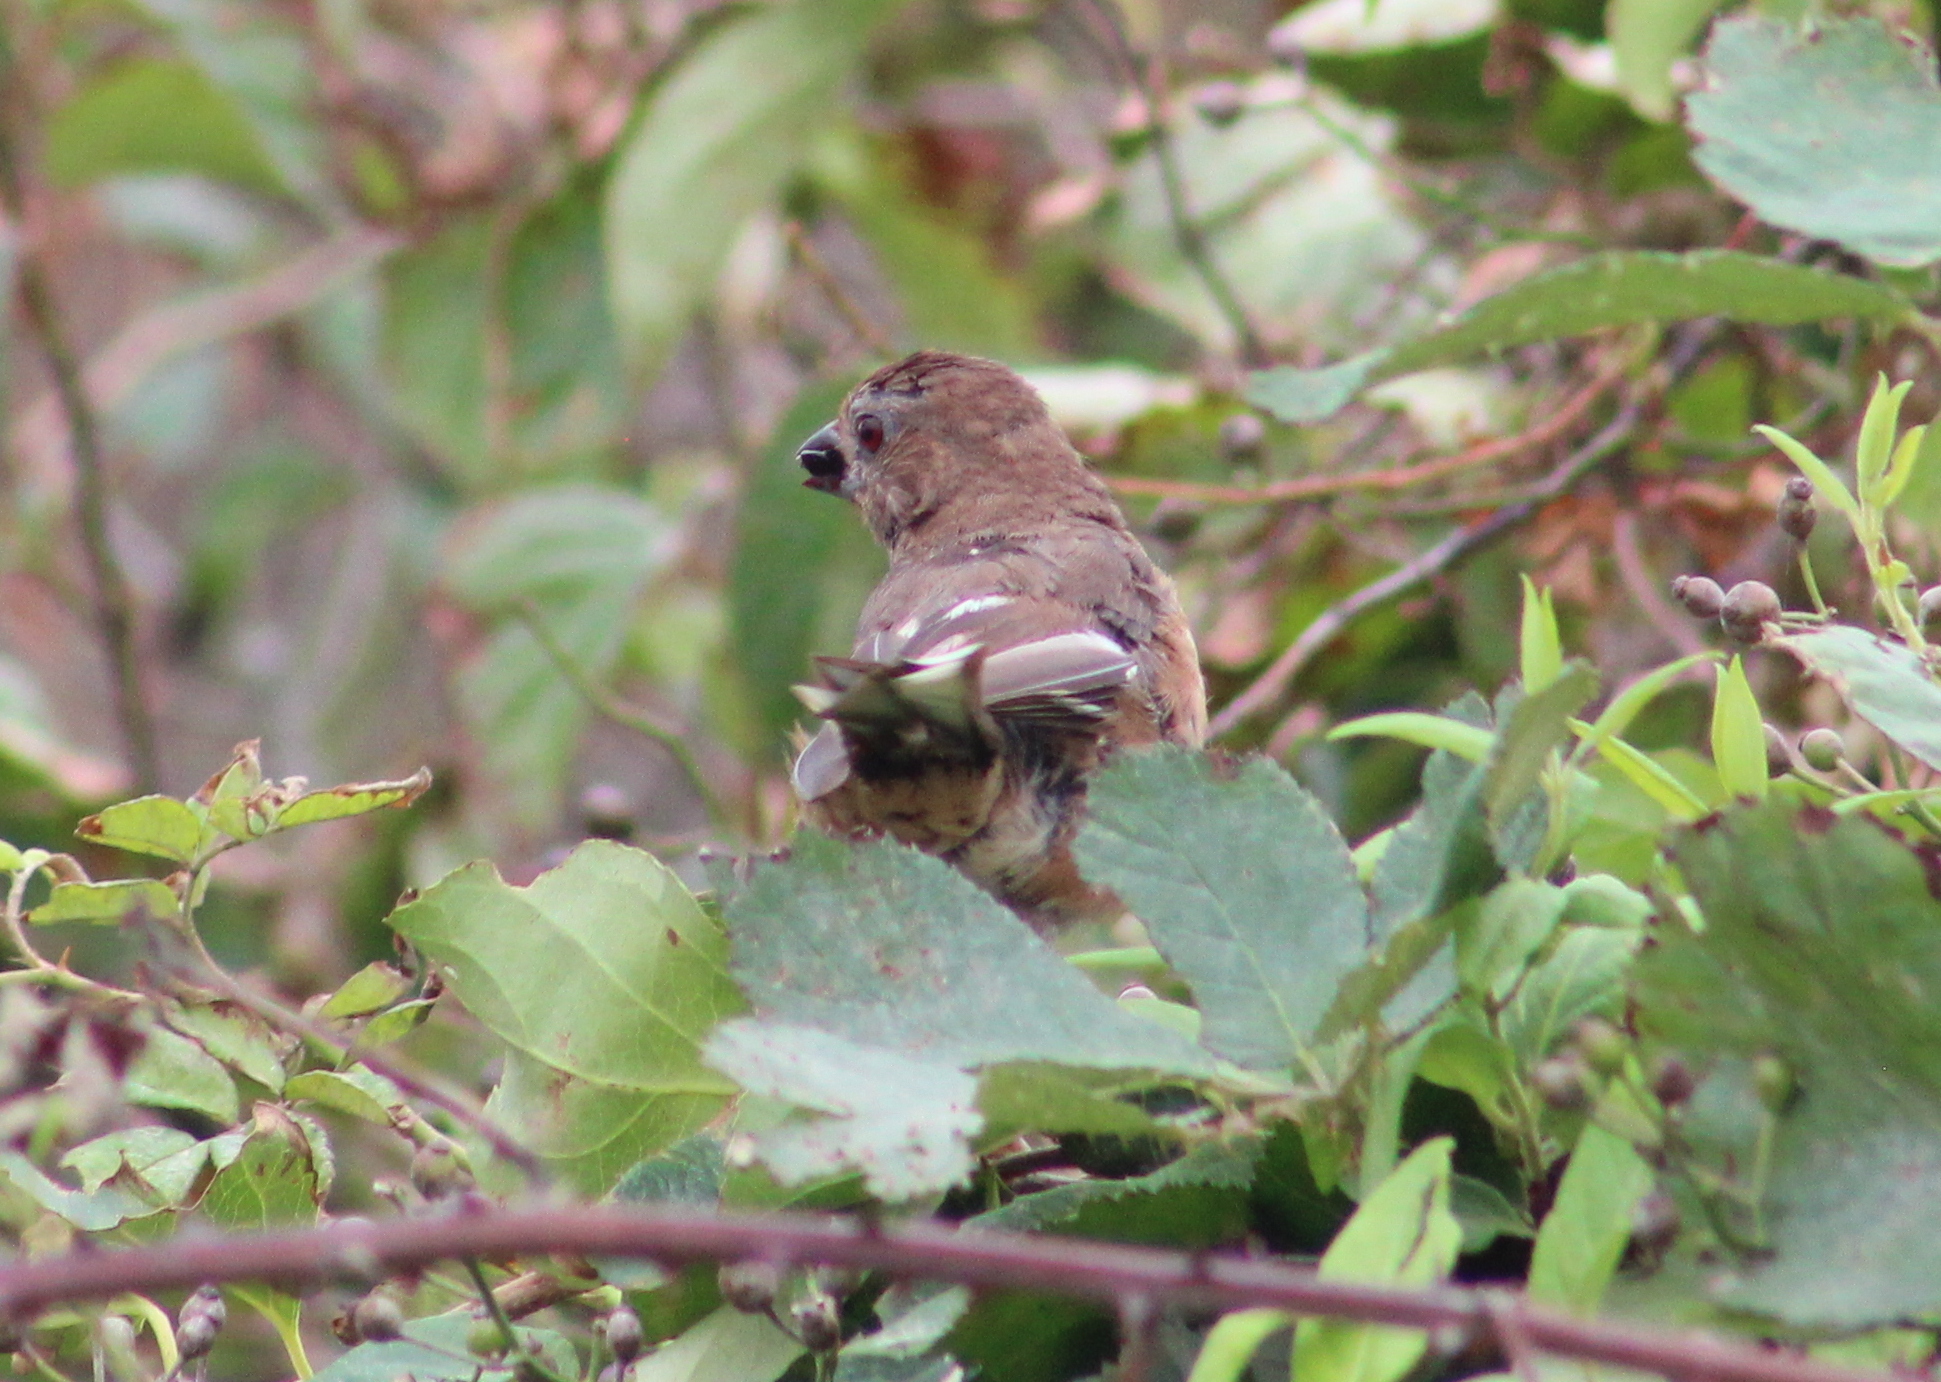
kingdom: Animalia
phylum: Chordata
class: Aves
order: Passeriformes
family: Passerellidae
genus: Pipilo
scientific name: Pipilo erythrophthalmus
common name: Eastern towhee
